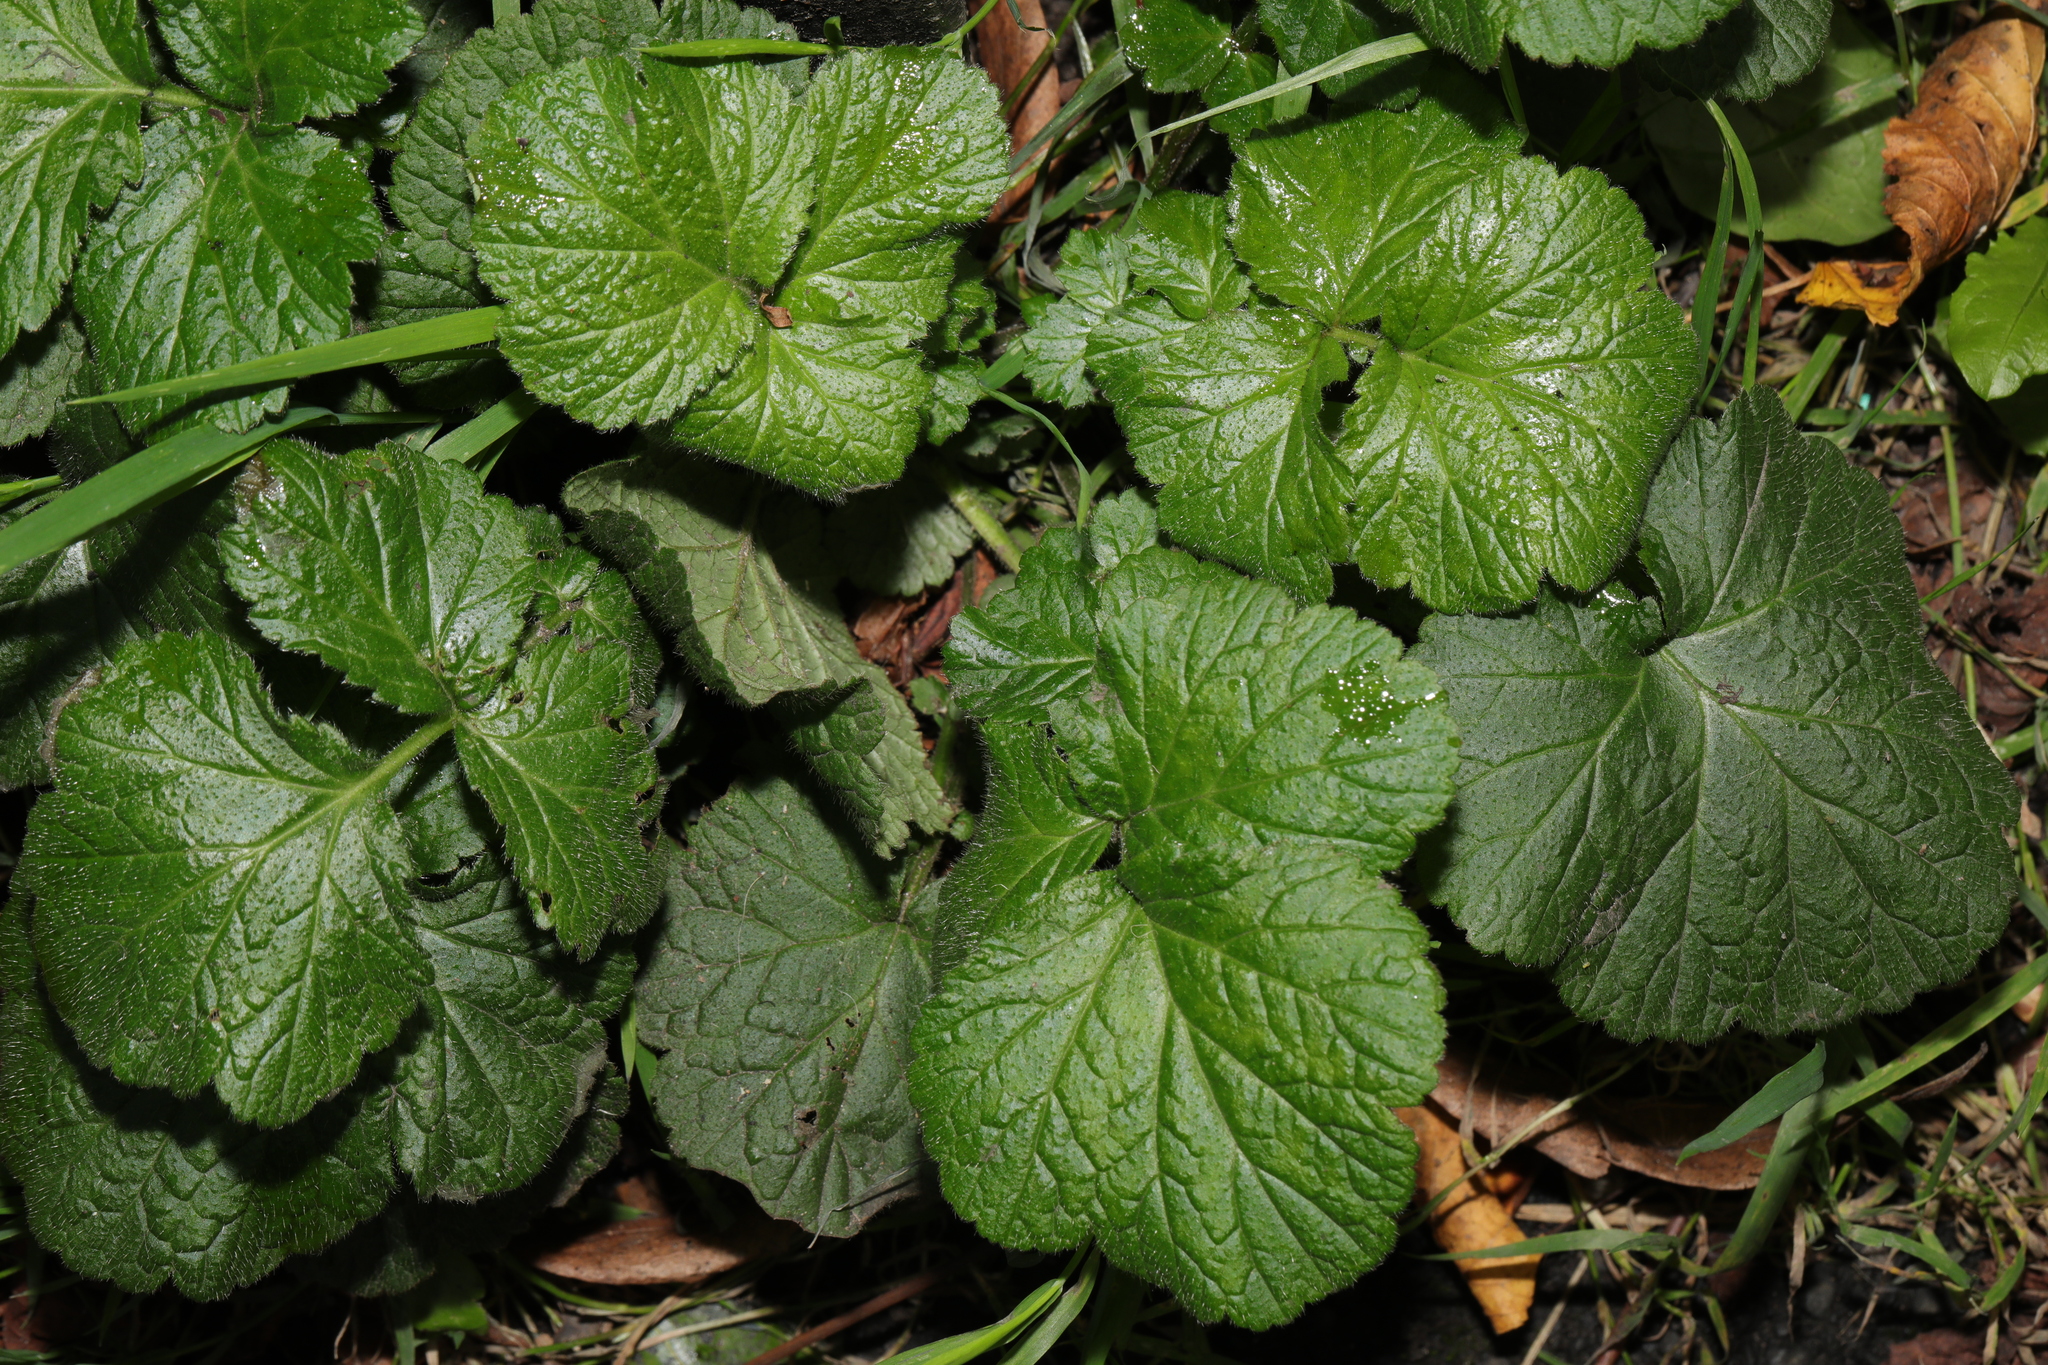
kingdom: Plantae
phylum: Tracheophyta
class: Magnoliopsida
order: Rosales
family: Rosaceae
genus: Geum
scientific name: Geum urbanum
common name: Wood avens
